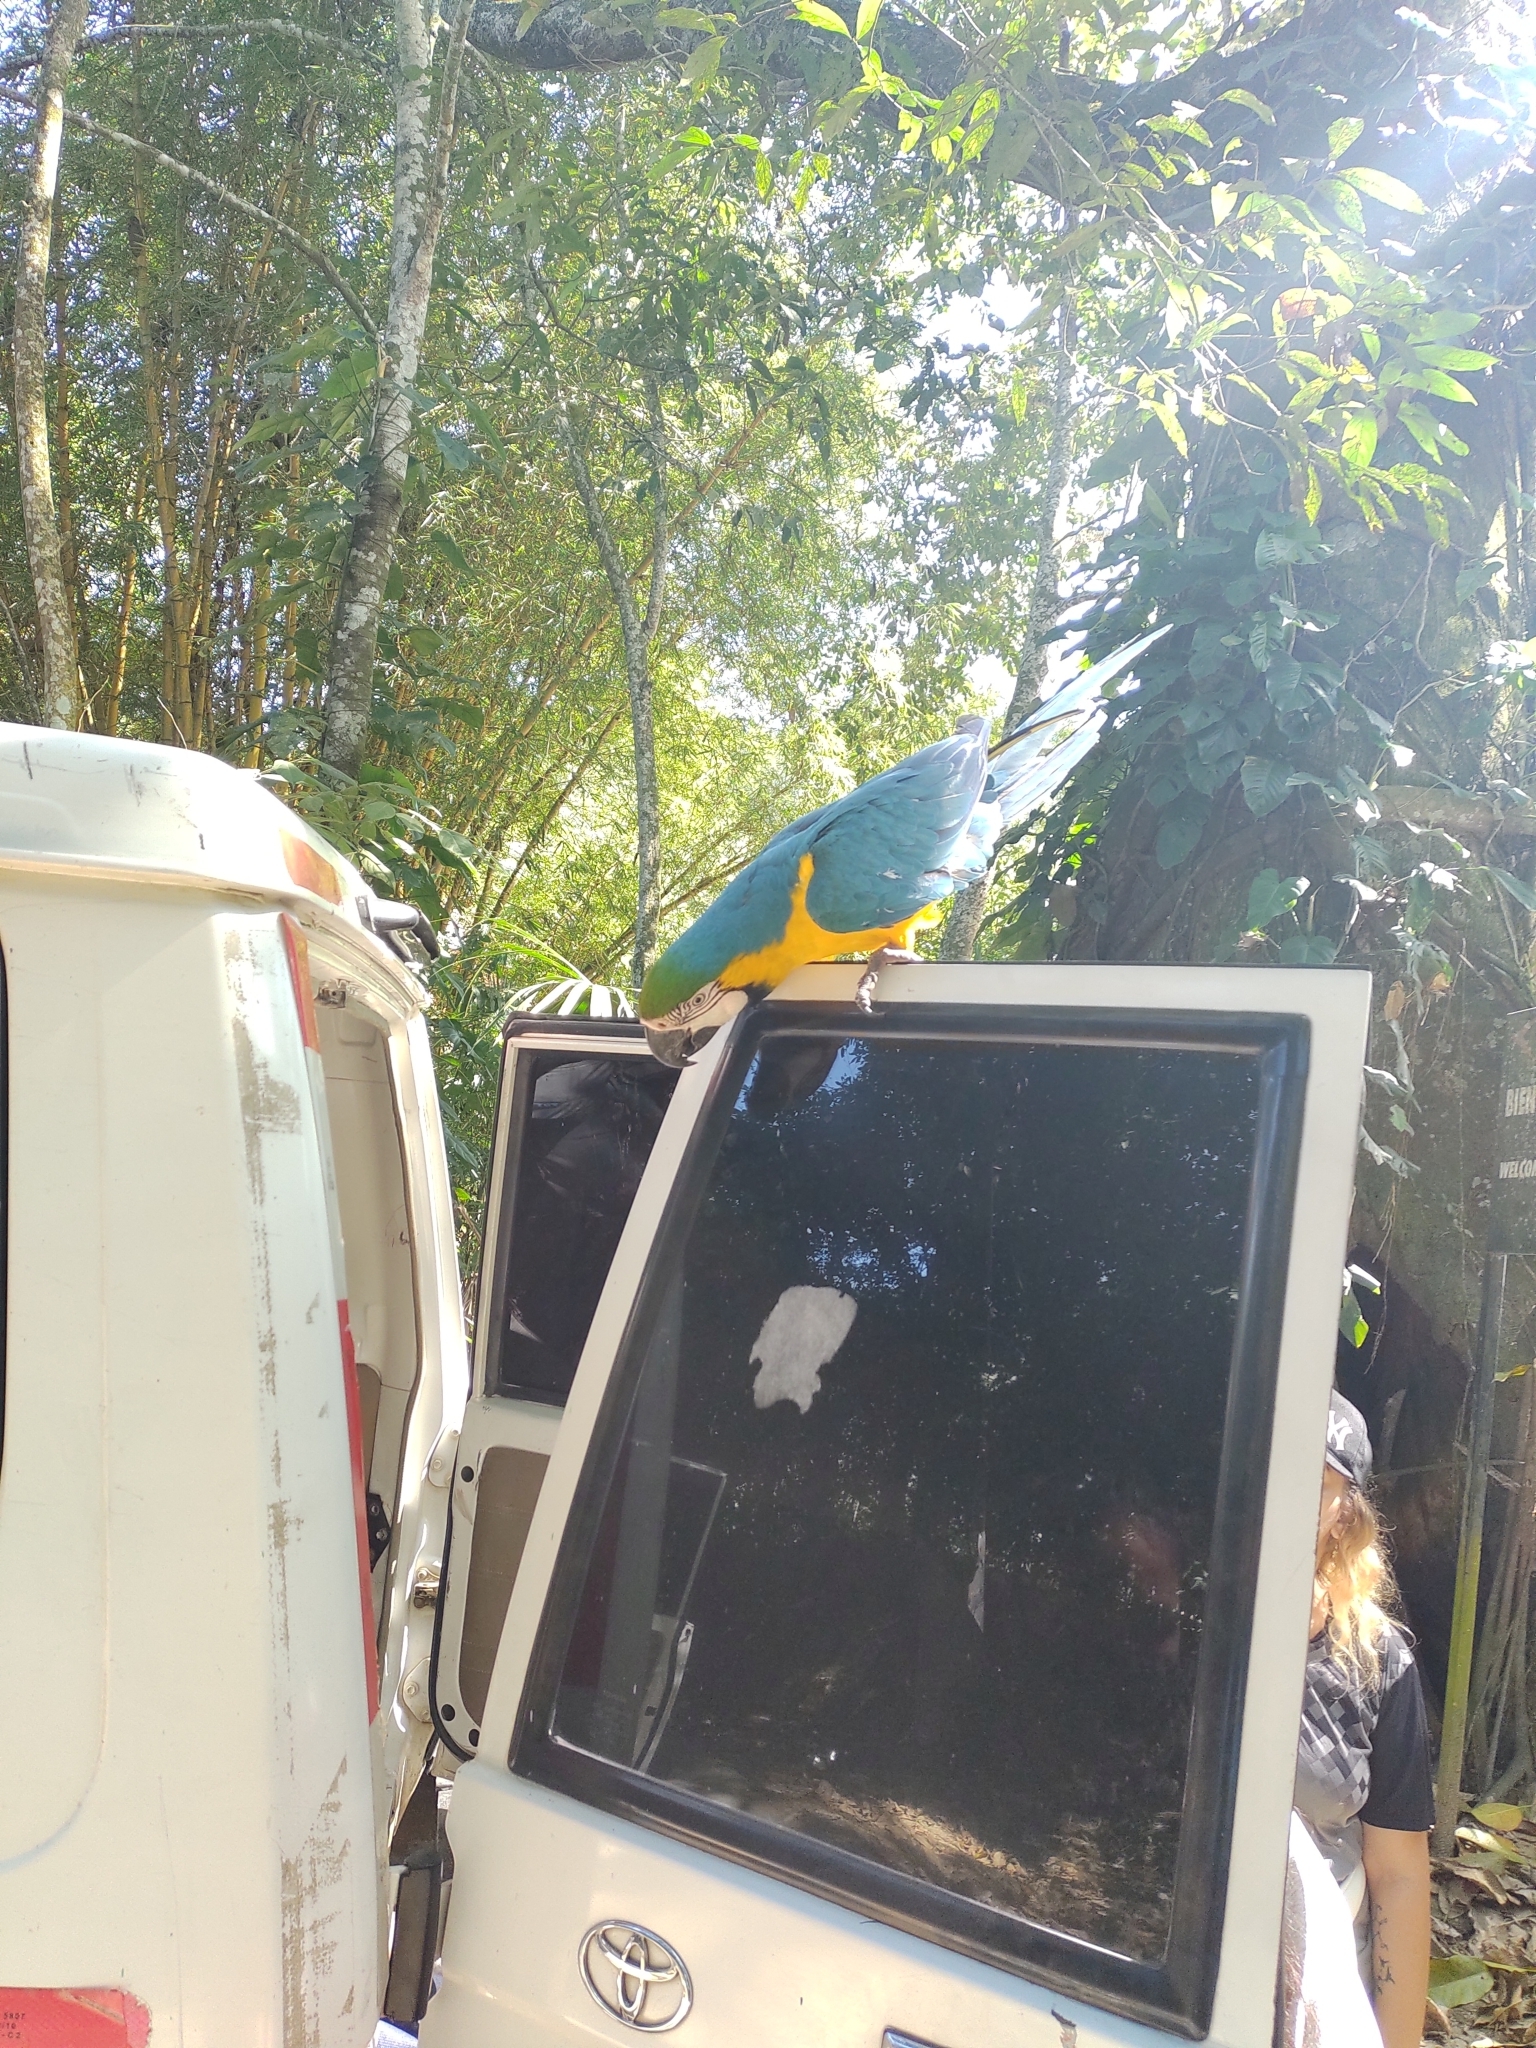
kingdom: Animalia
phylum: Chordata
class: Aves
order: Psittaciformes
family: Psittacidae
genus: Ara
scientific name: Ara ararauna
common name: Blue-and-yellow macaw
